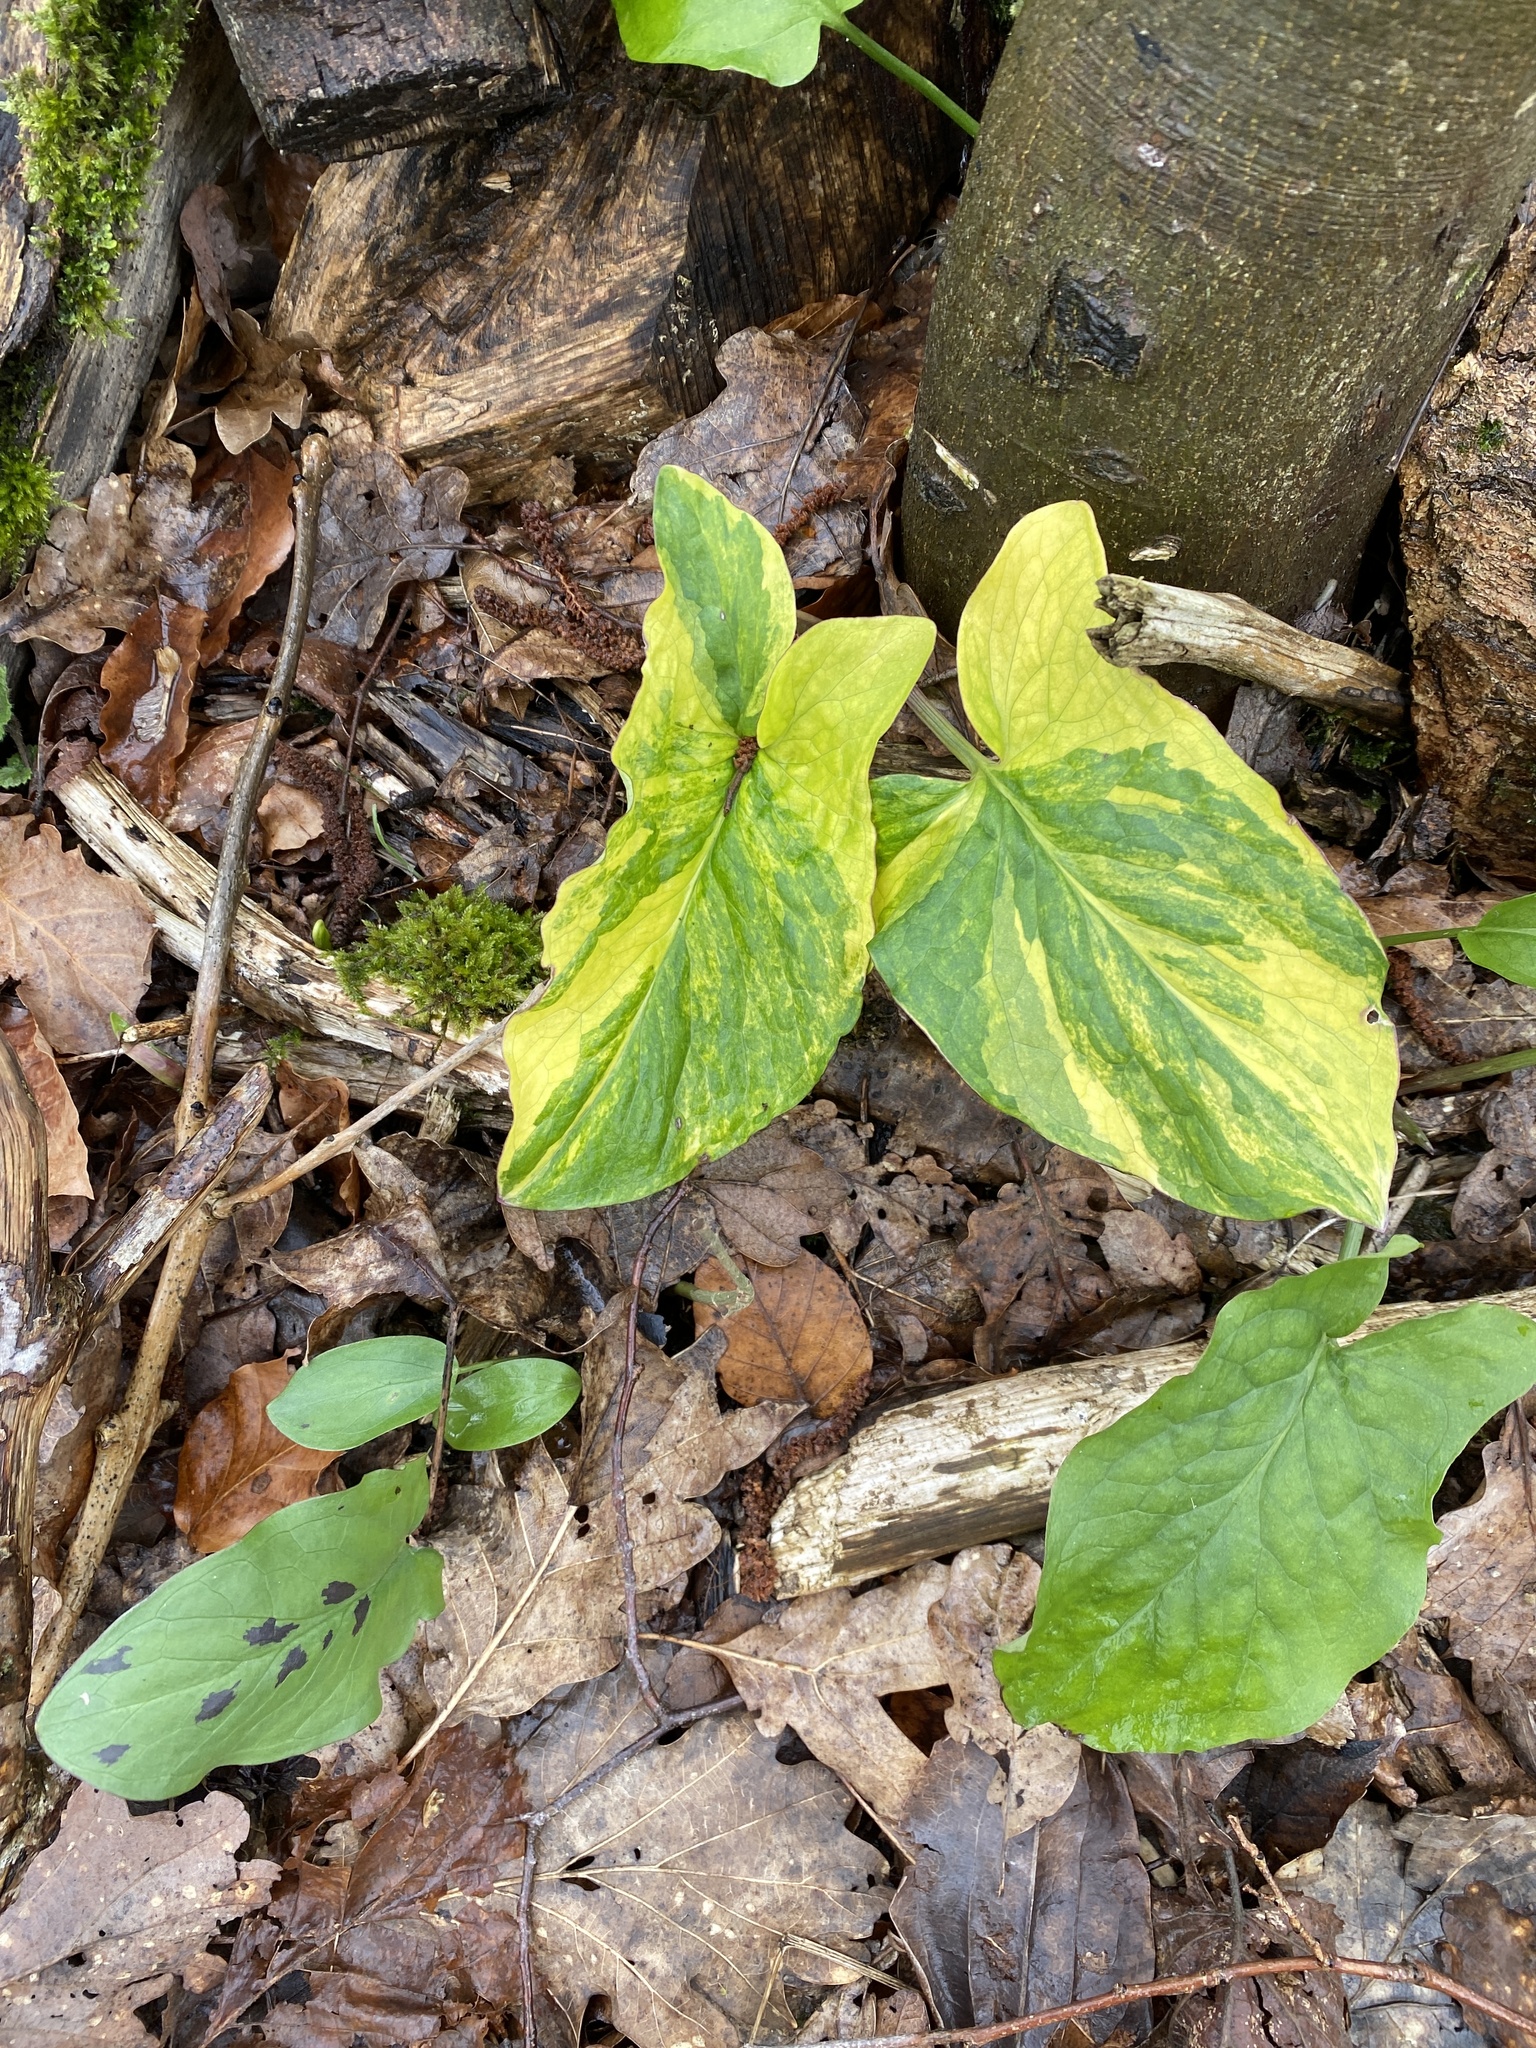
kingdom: Plantae
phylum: Tracheophyta
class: Liliopsida
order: Alismatales
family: Araceae
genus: Arum
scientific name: Arum maculatum
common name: Lords-and-ladies
